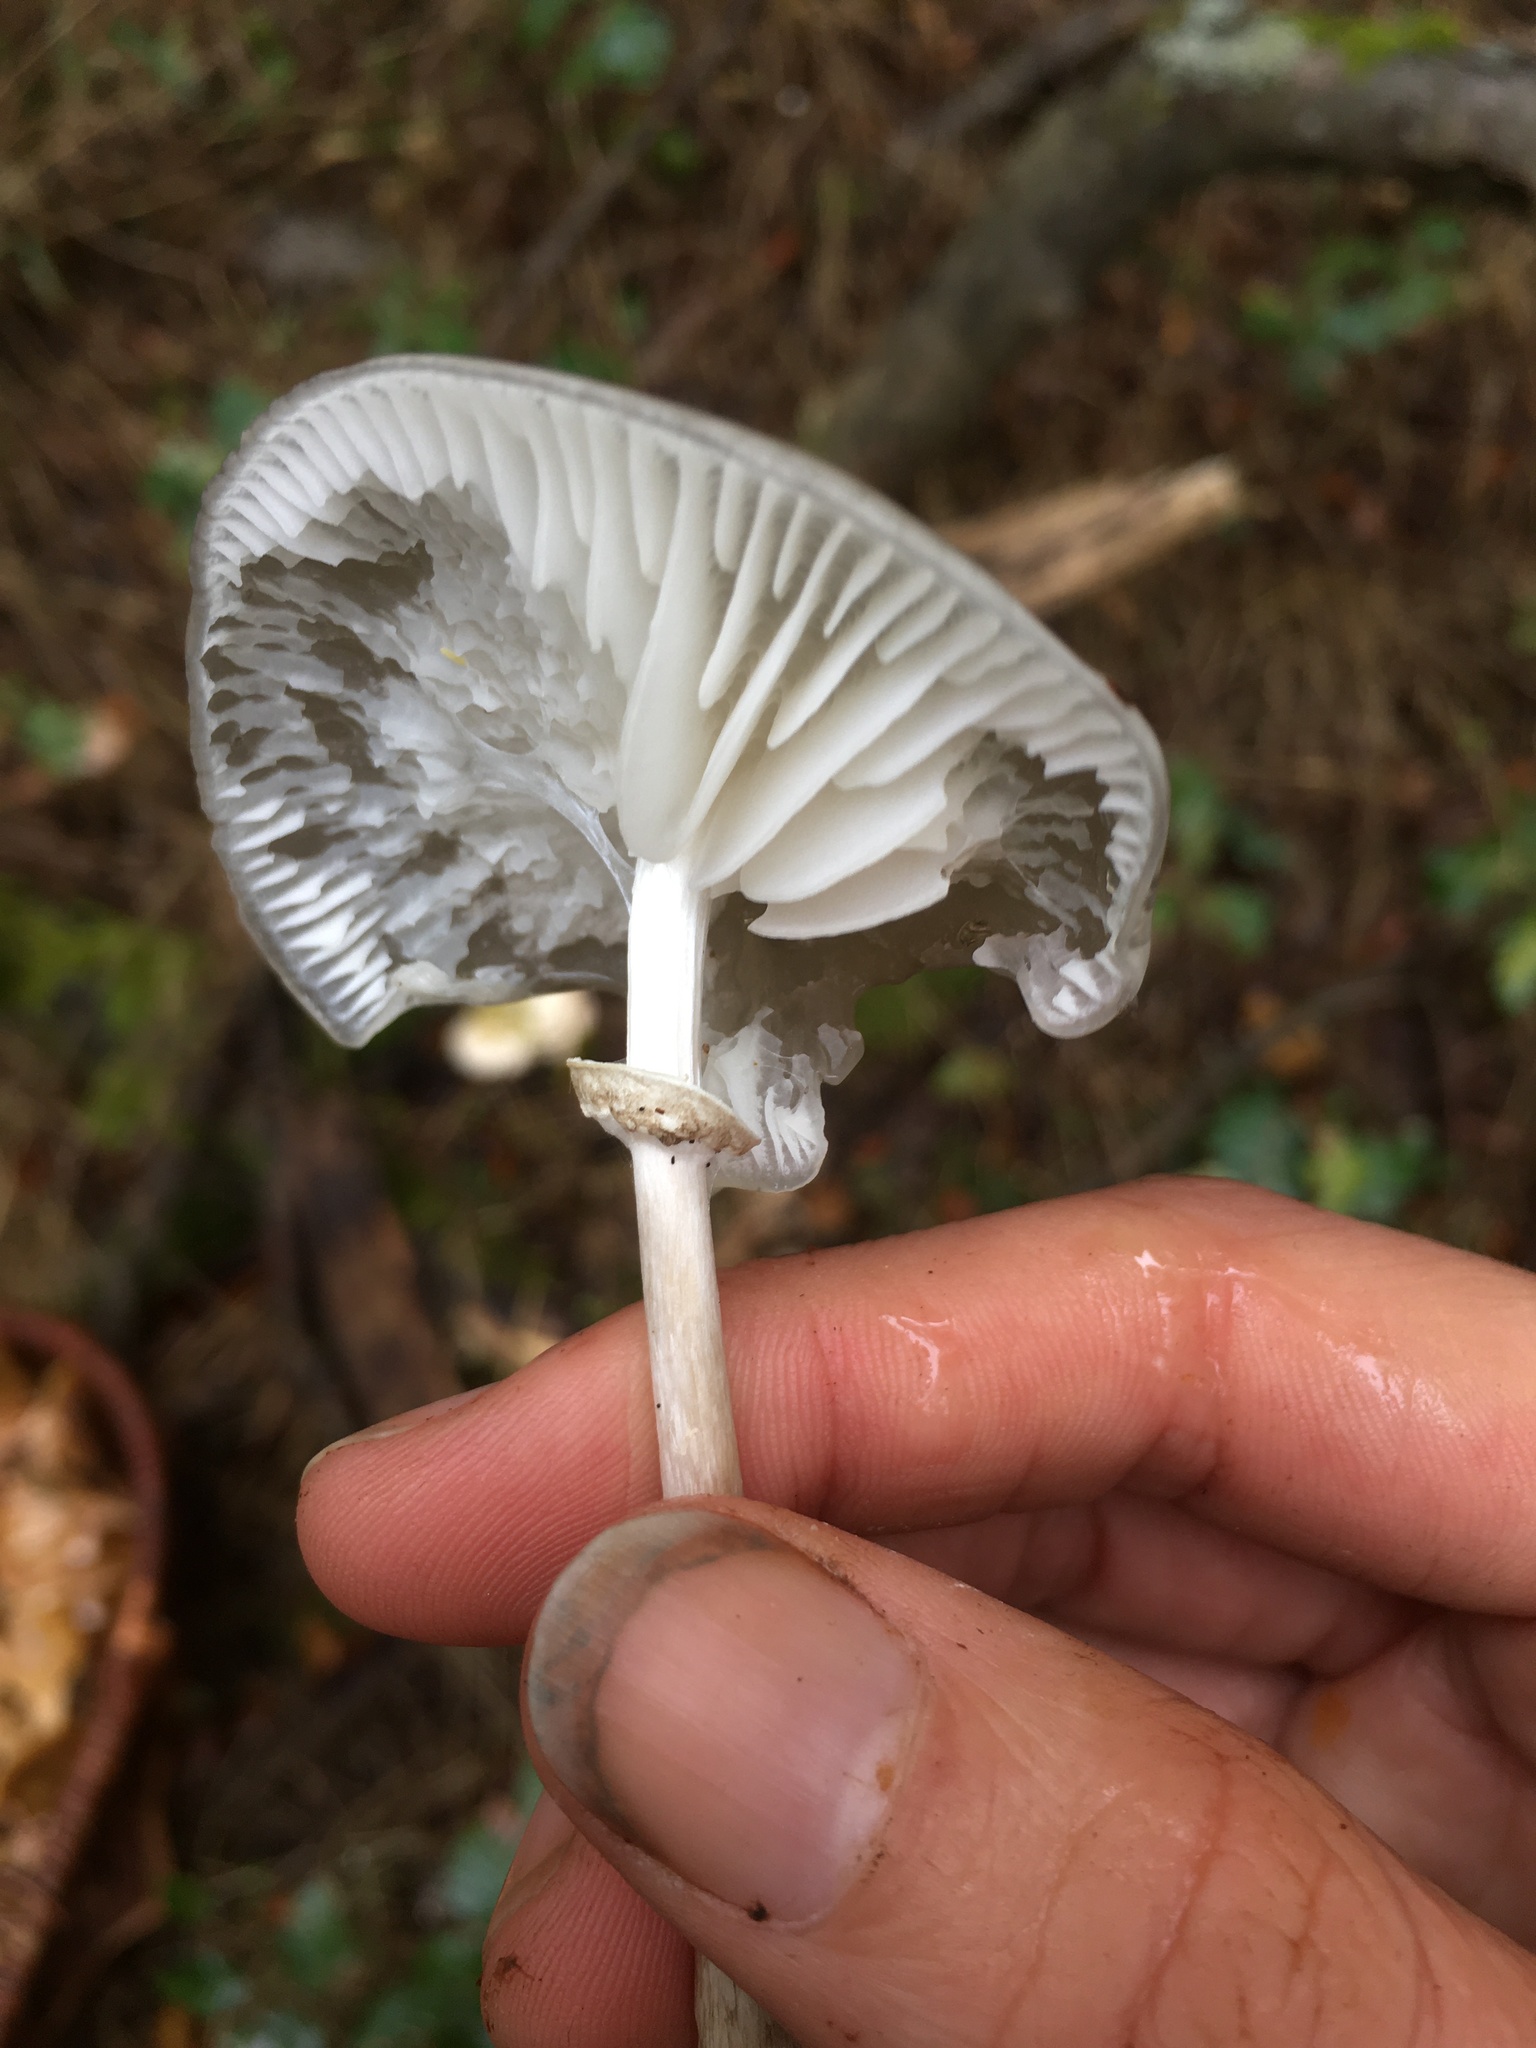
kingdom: Fungi
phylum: Basidiomycota
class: Agaricomycetes
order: Agaricales
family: Physalacriaceae
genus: Mucidula
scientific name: Mucidula mucida
